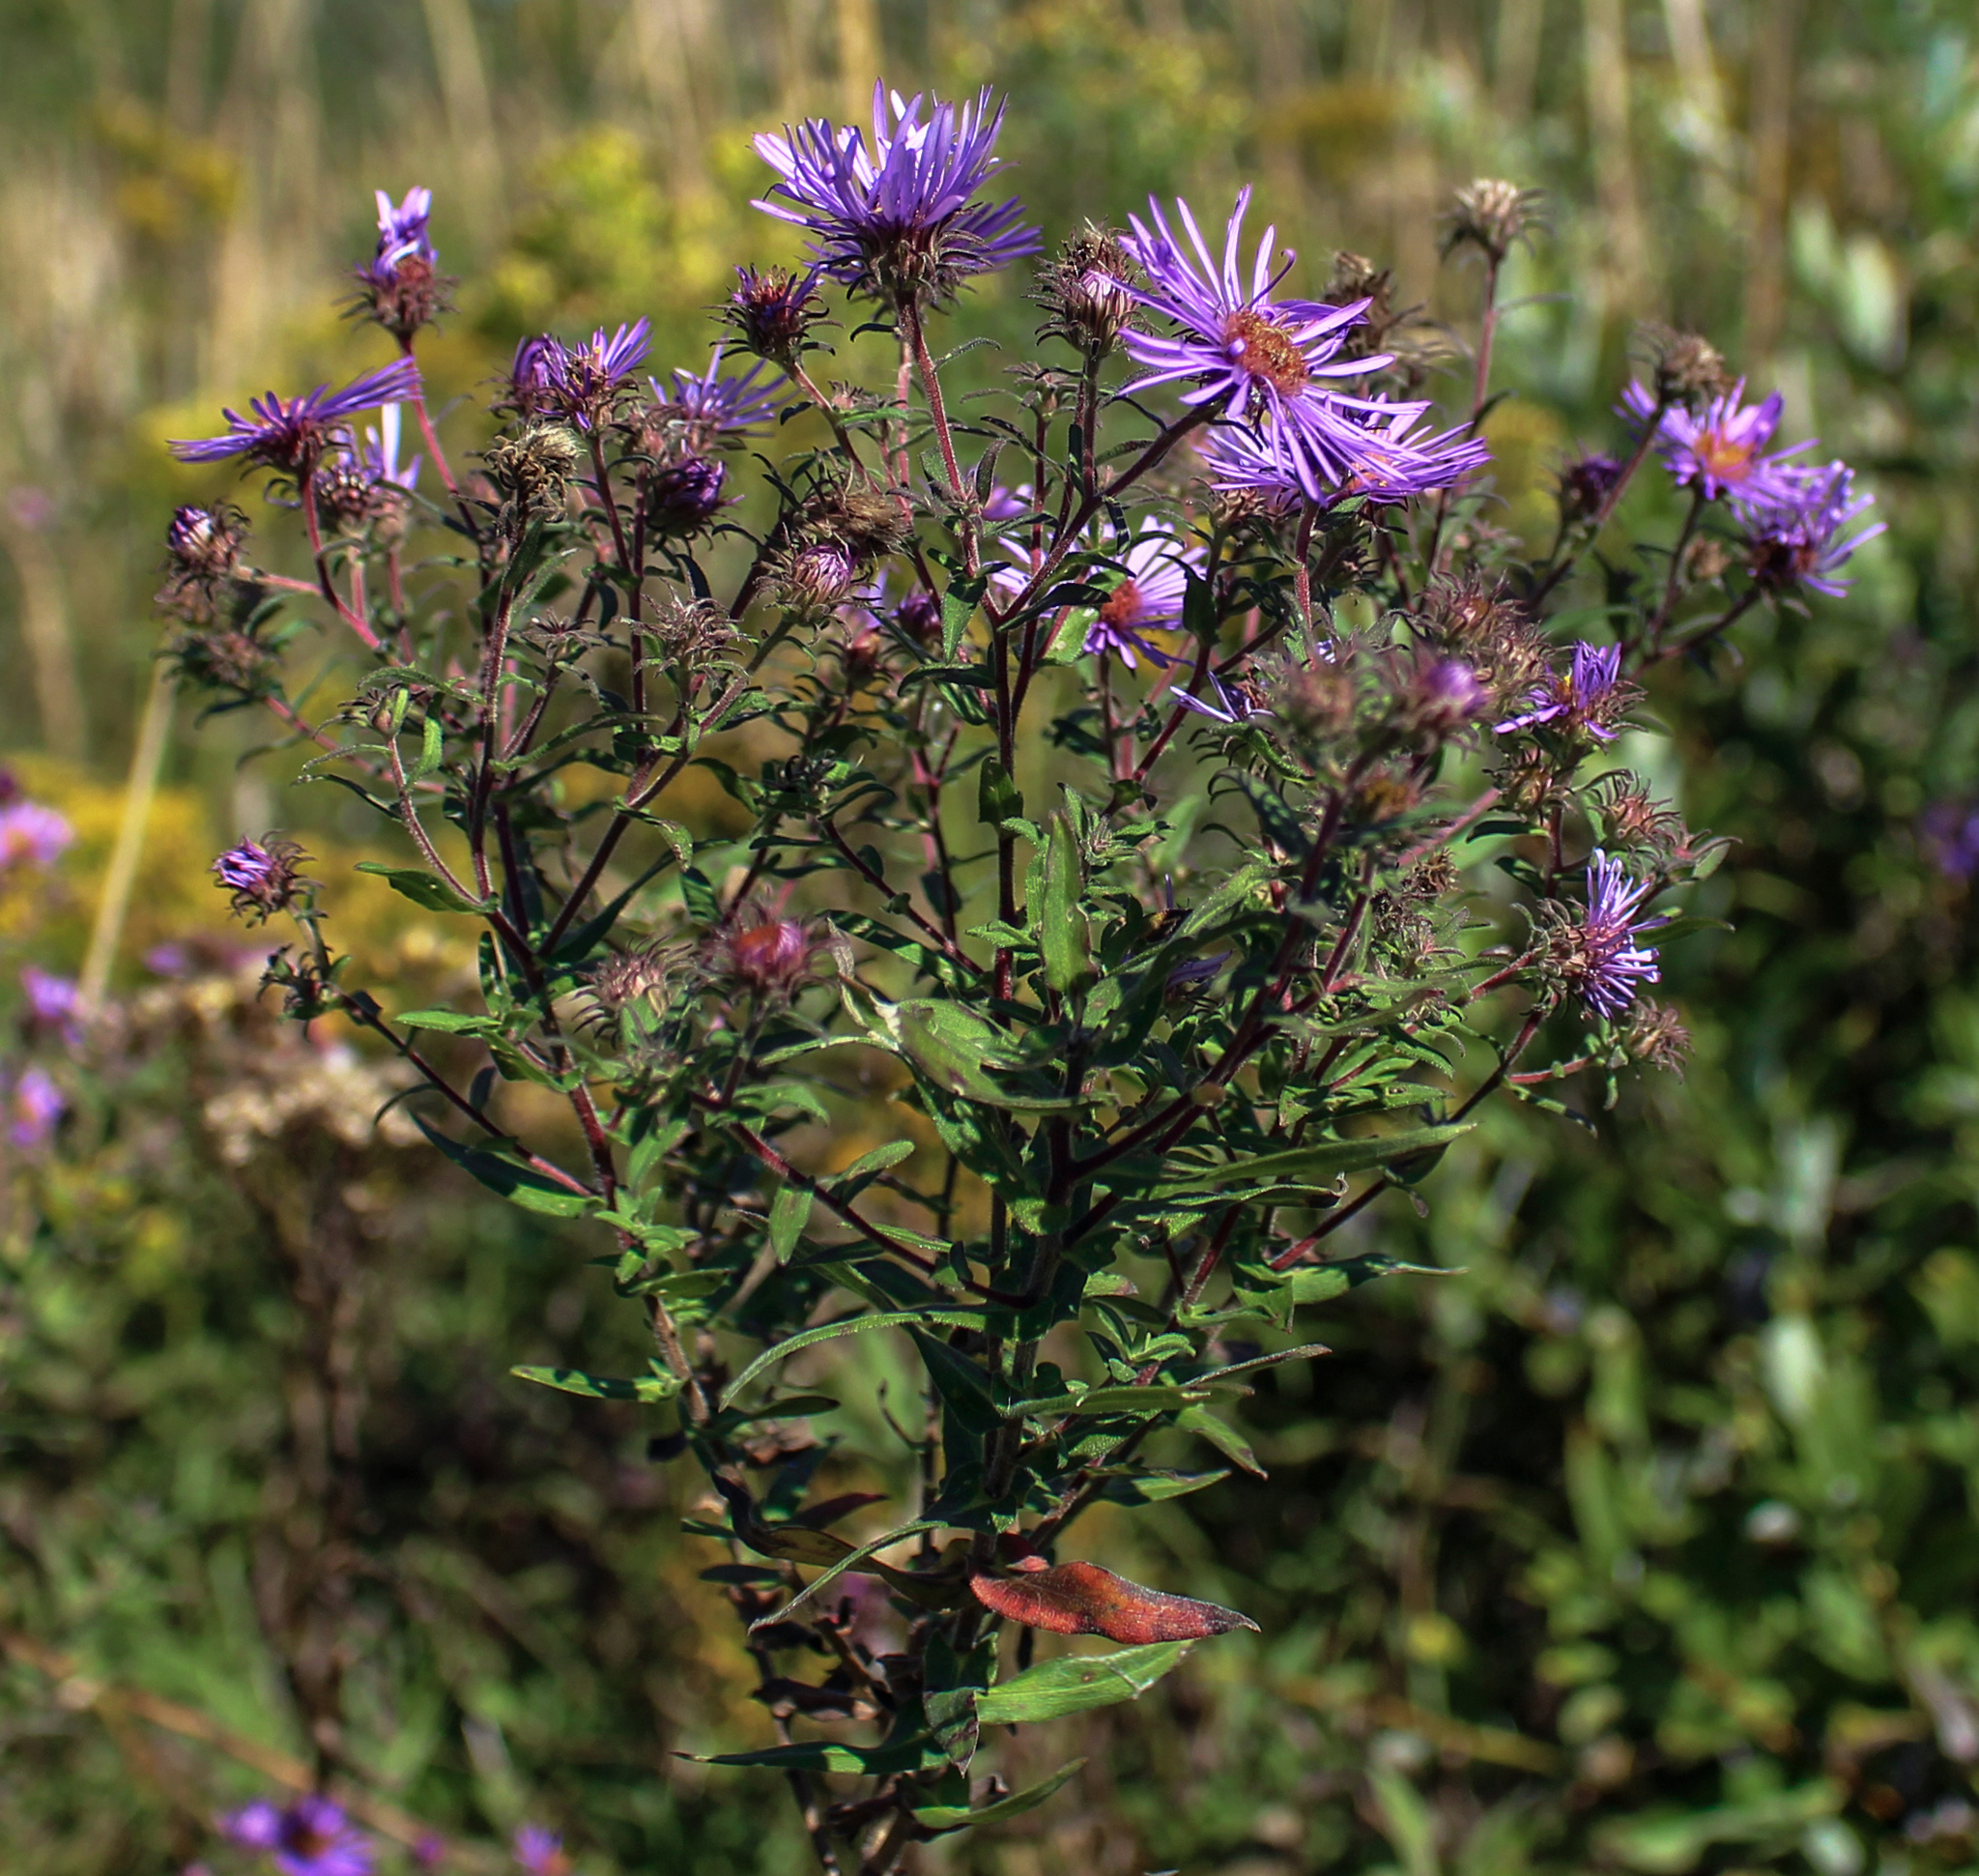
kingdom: Plantae
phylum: Tracheophyta
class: Magnoliopsida
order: Asterales
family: Asteraceae
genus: Symphyotrichum
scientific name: Symphyotrichum novae-angliae
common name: Michaelmas daisy
